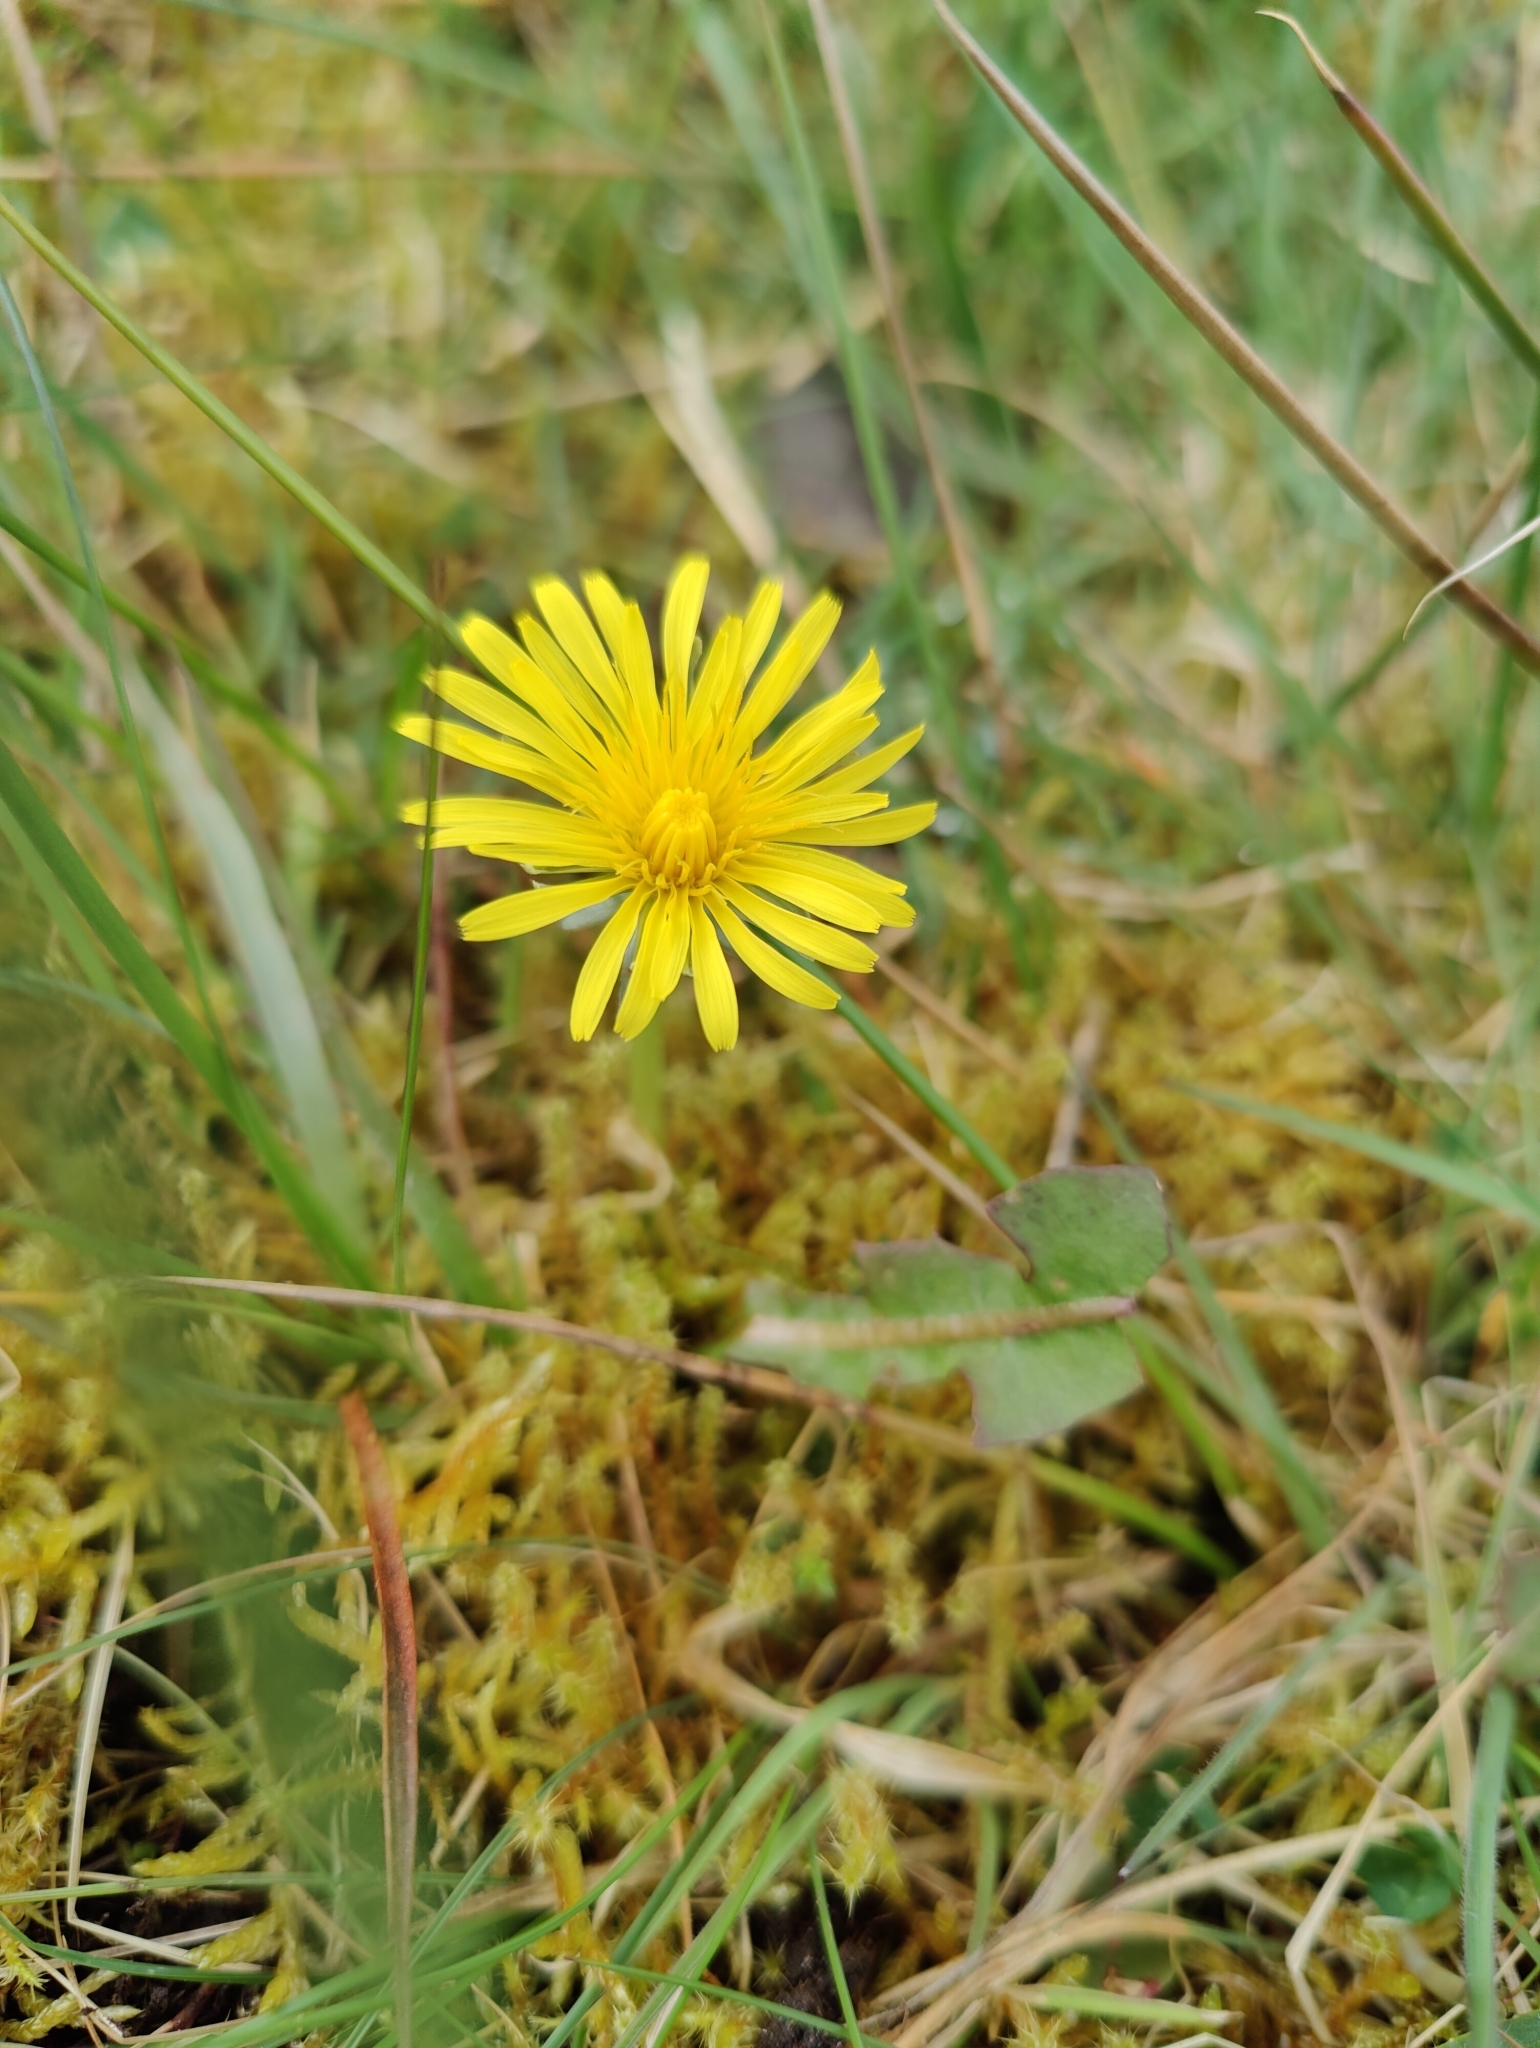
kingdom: Plantae
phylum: Tracheophyta
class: Magnoliopsida
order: Asterales
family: Asteraceae
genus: Taraxacum
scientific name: Taraxacum officinale
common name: Common dandelion
